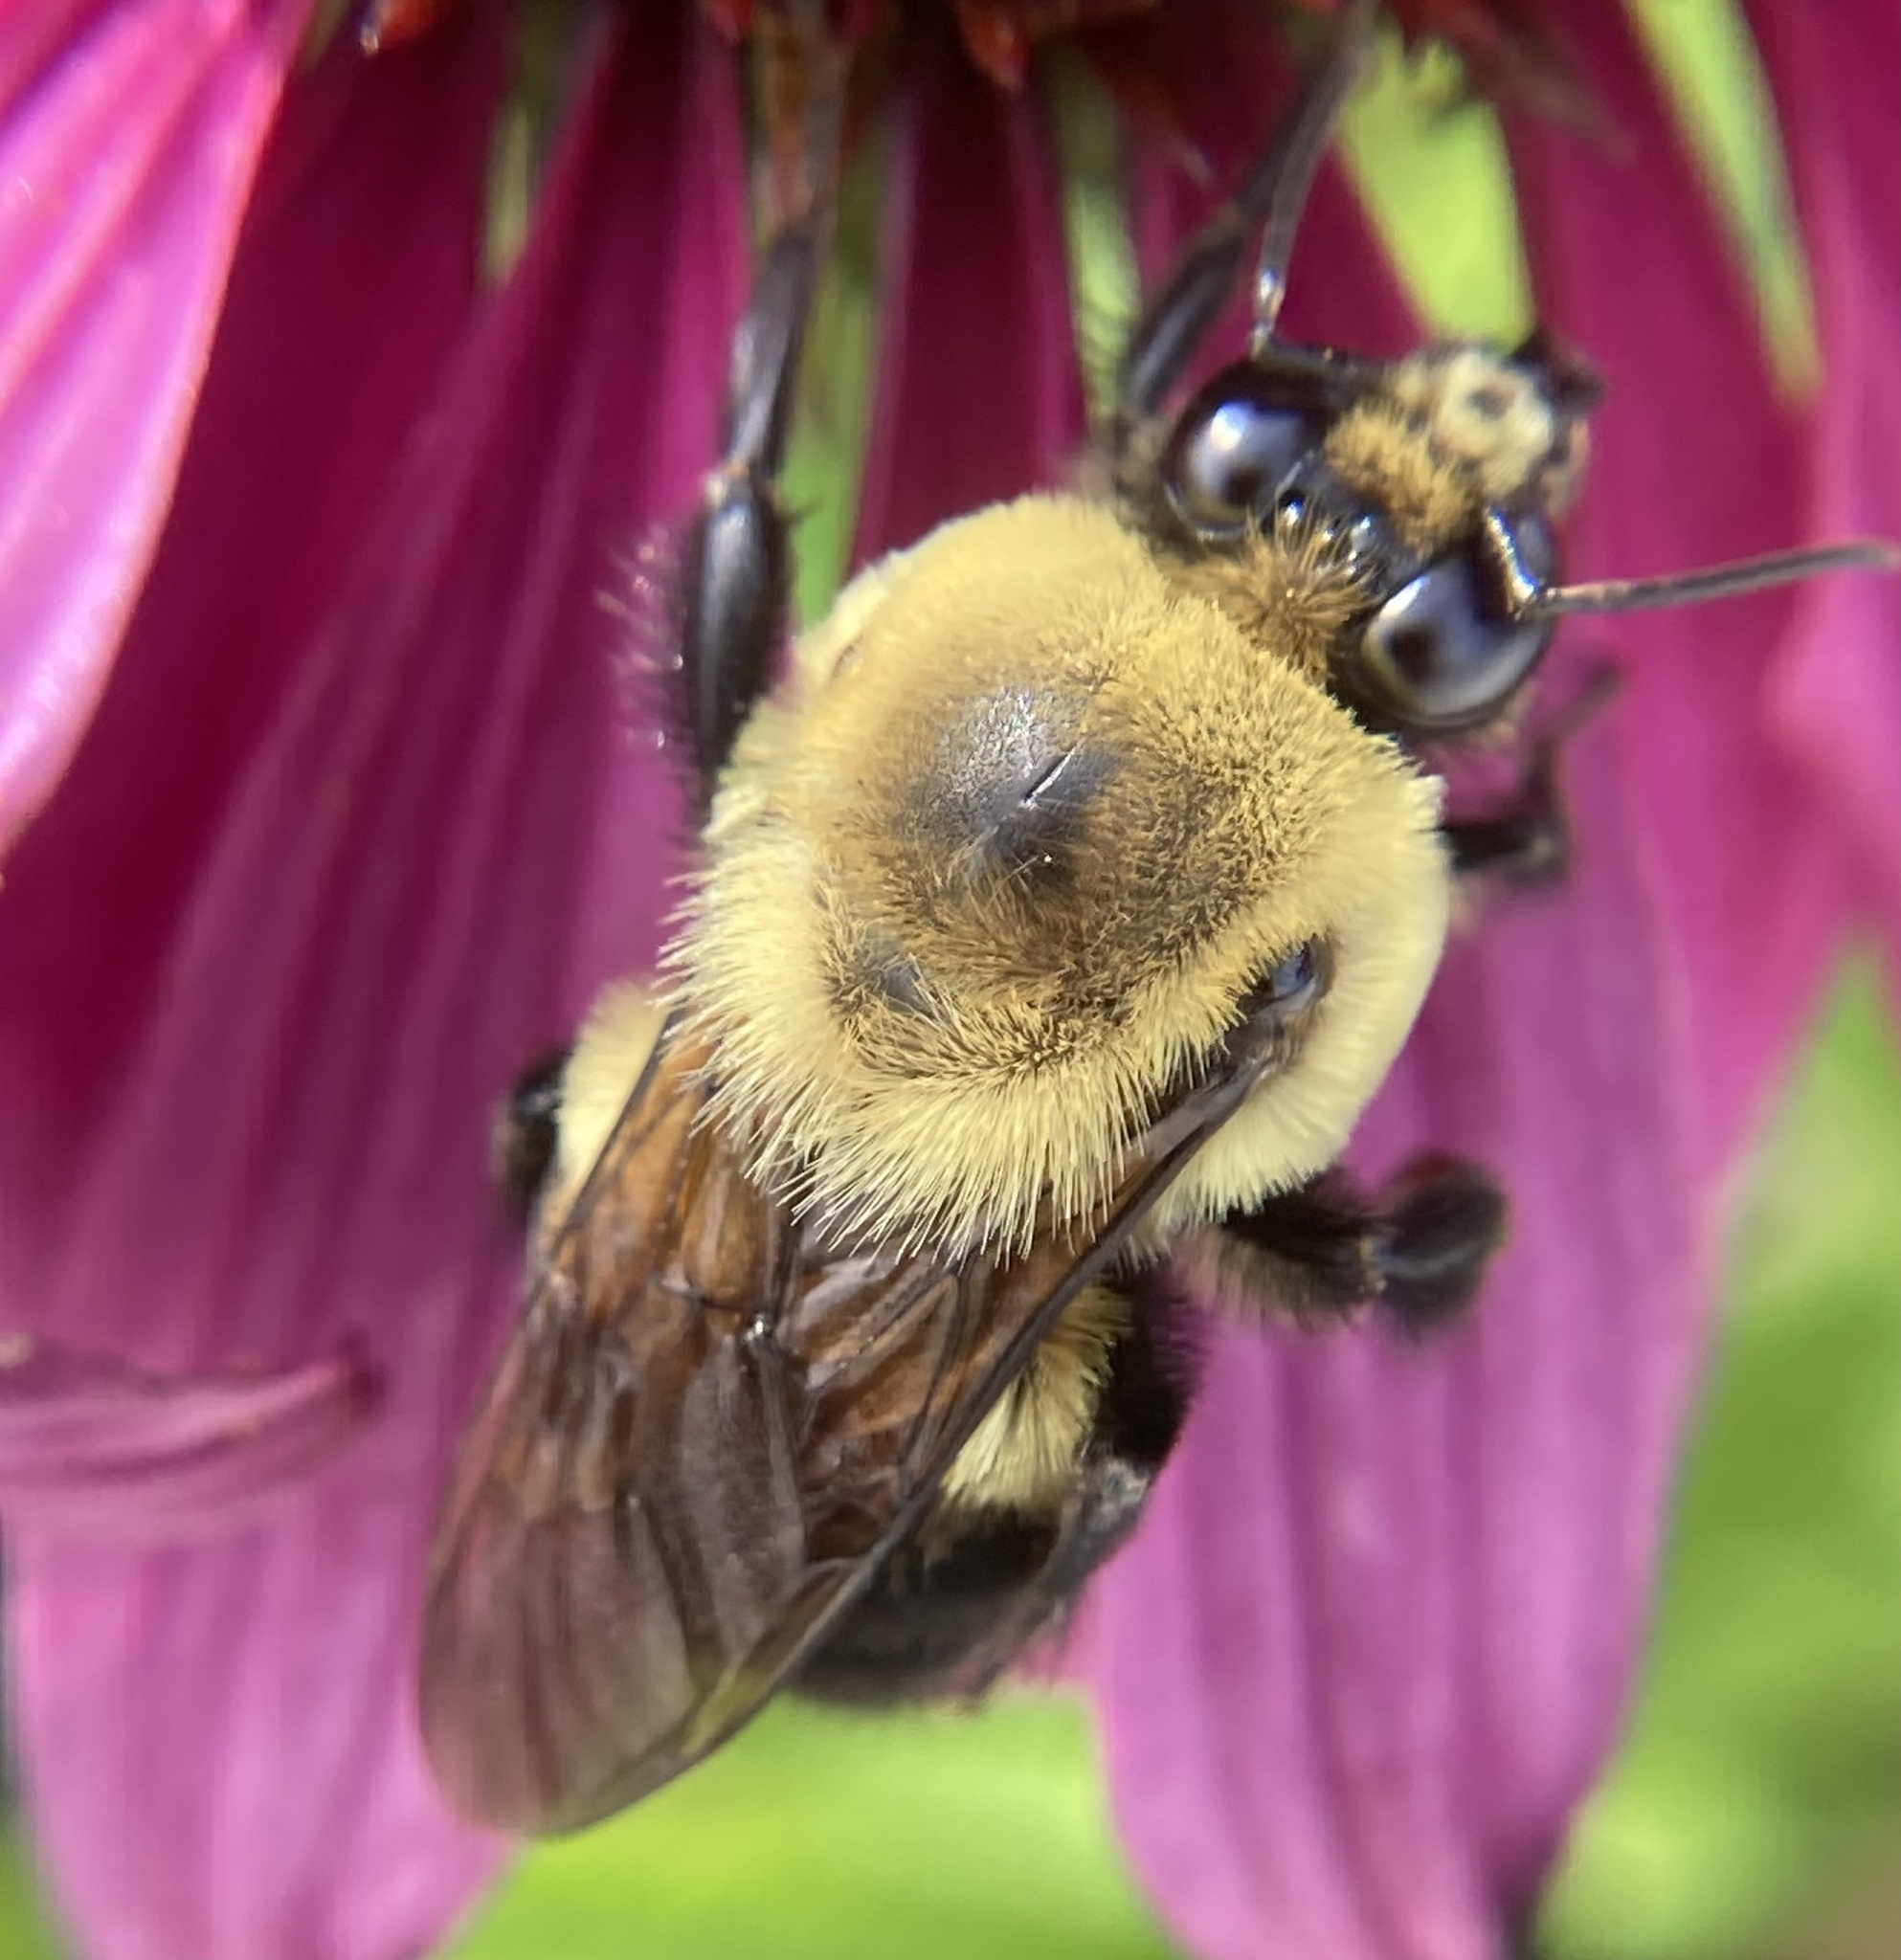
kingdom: Animalia
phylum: Arthropoda
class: Insecta
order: Hymenoptera
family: Apidae
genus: Bombus
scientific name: Bombus griseocollis
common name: Brown-belted bumble bee
